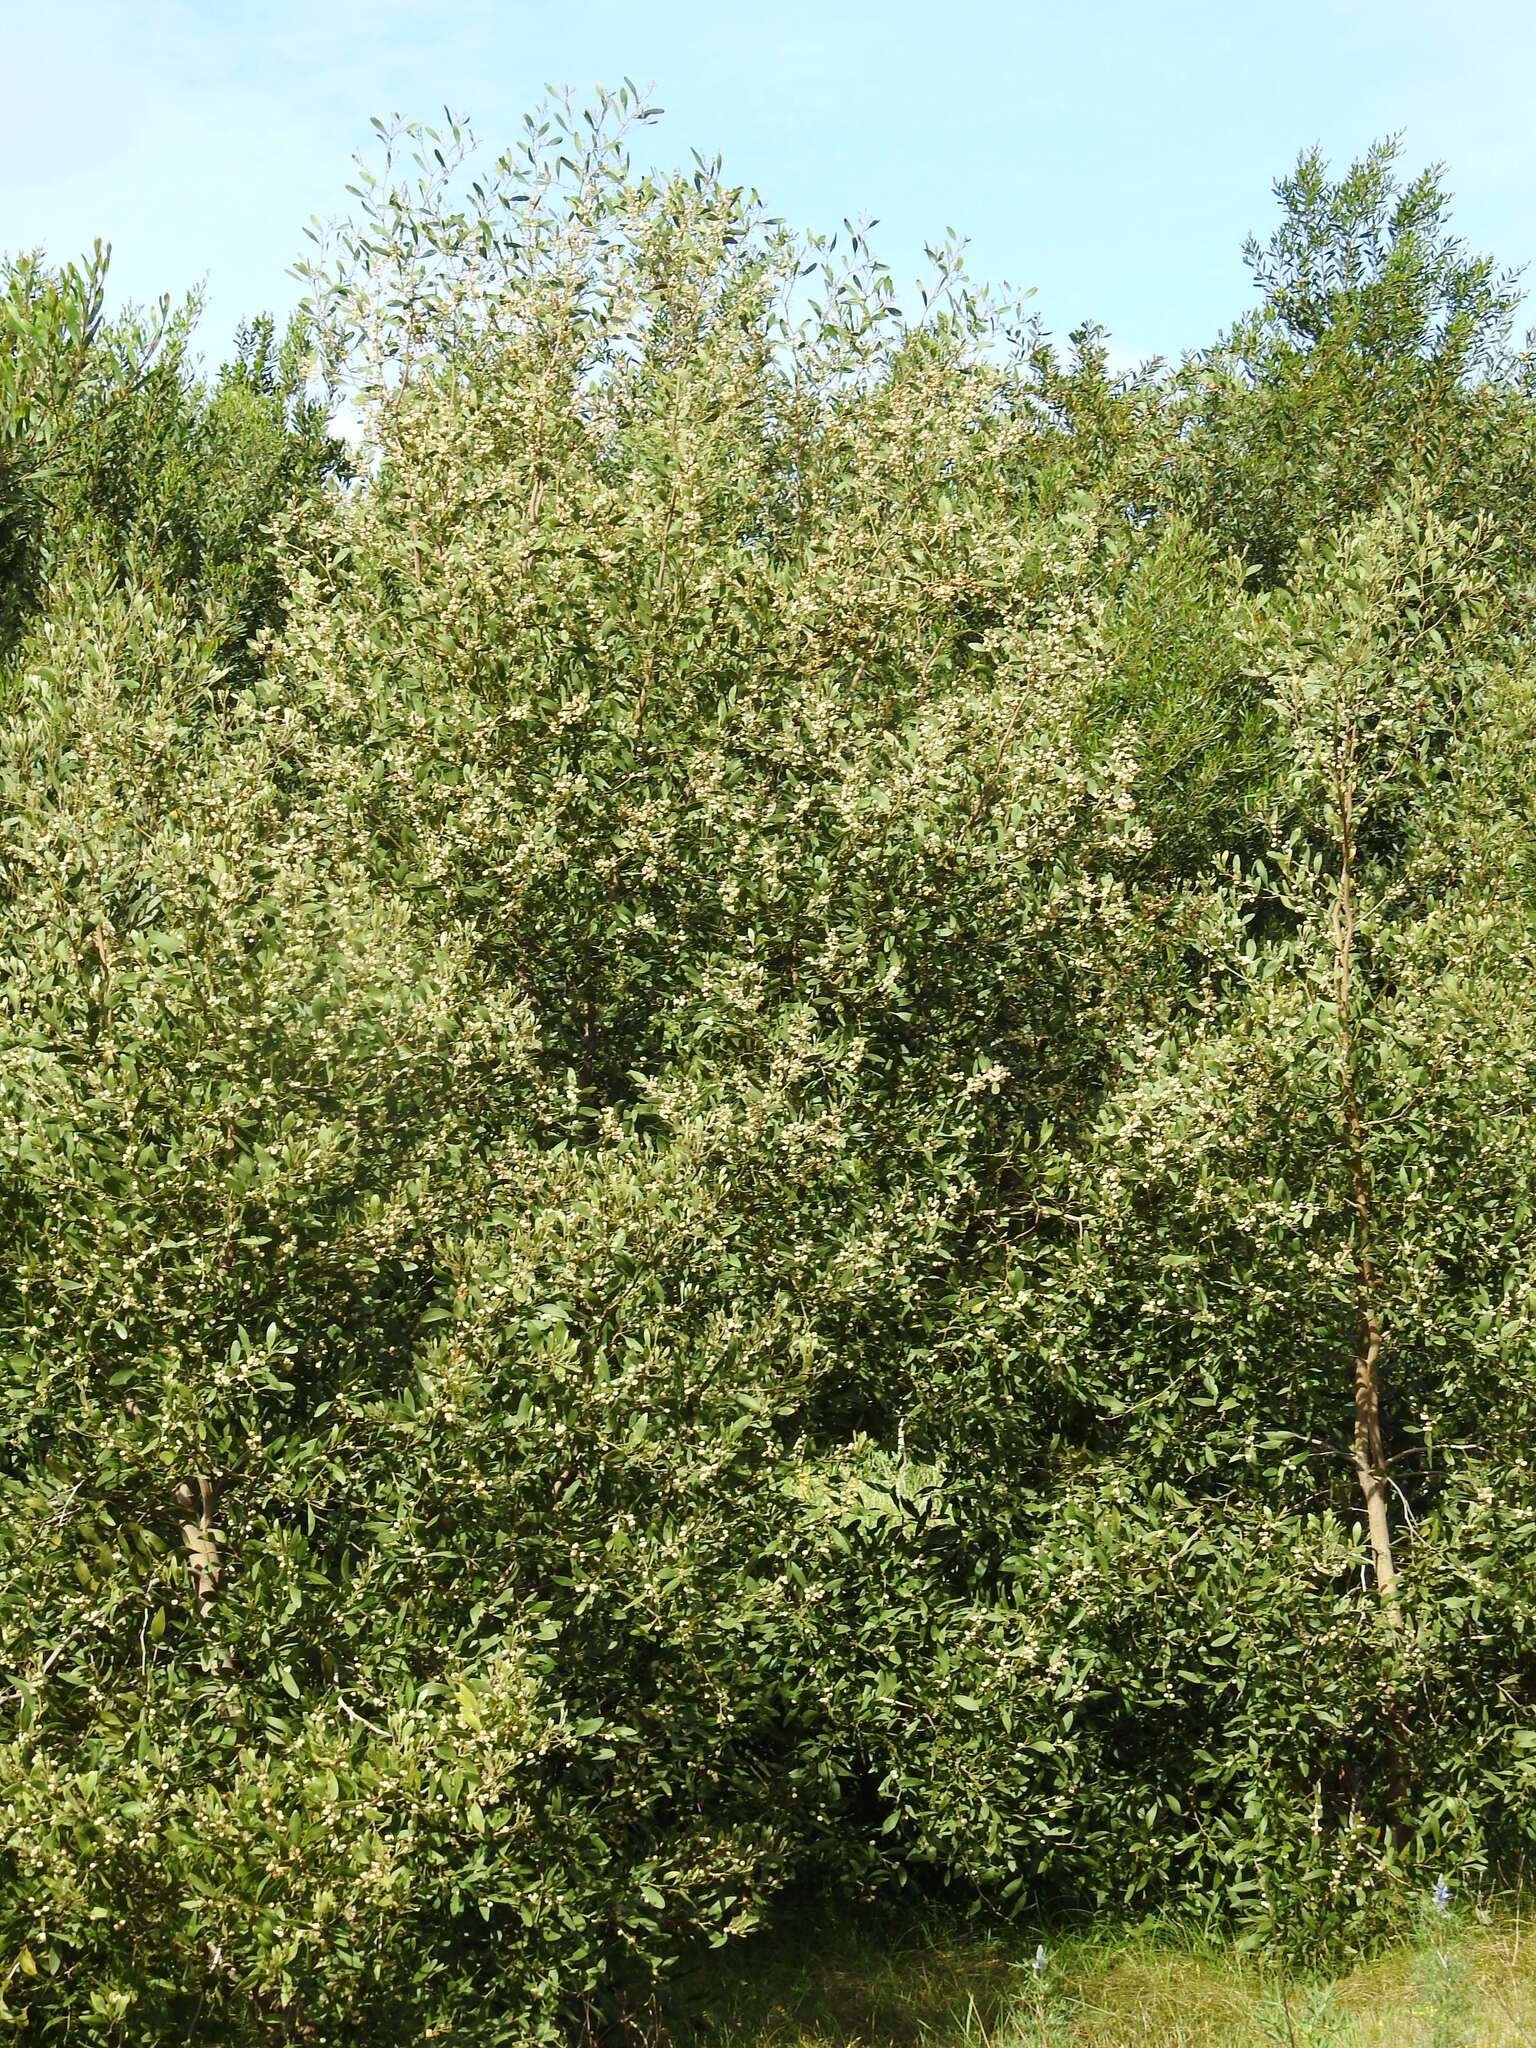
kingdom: Plantae
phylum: Tracheophyta
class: Magnoliopsida
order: Fabales
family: Fabaceae
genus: Acacia
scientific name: Acacia melanoxylon
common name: Blackwood
